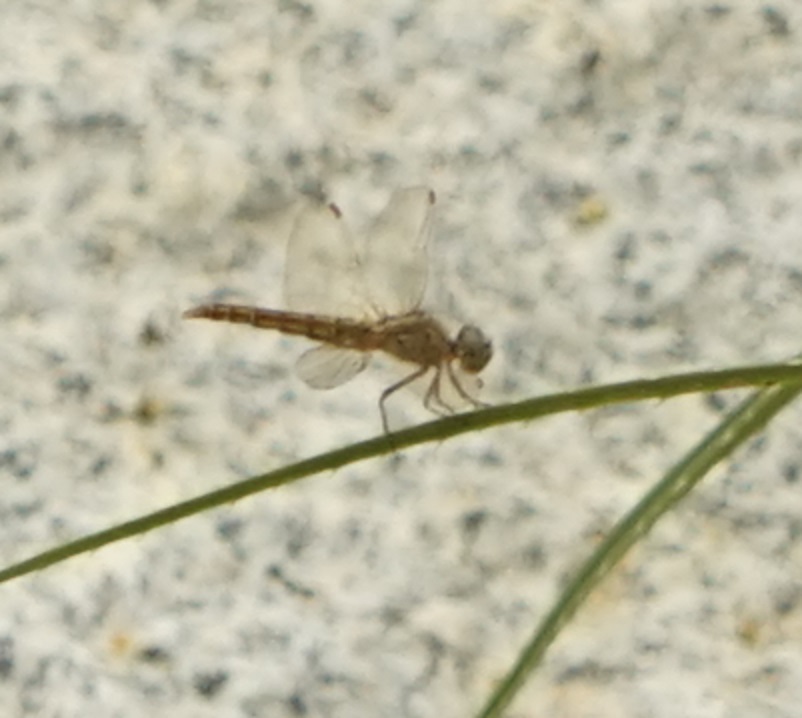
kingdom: Animalia
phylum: Arthropoda
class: Insecta
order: Odonata
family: Libellulidae
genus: Brachythemis
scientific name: Brachythemis contaminata
